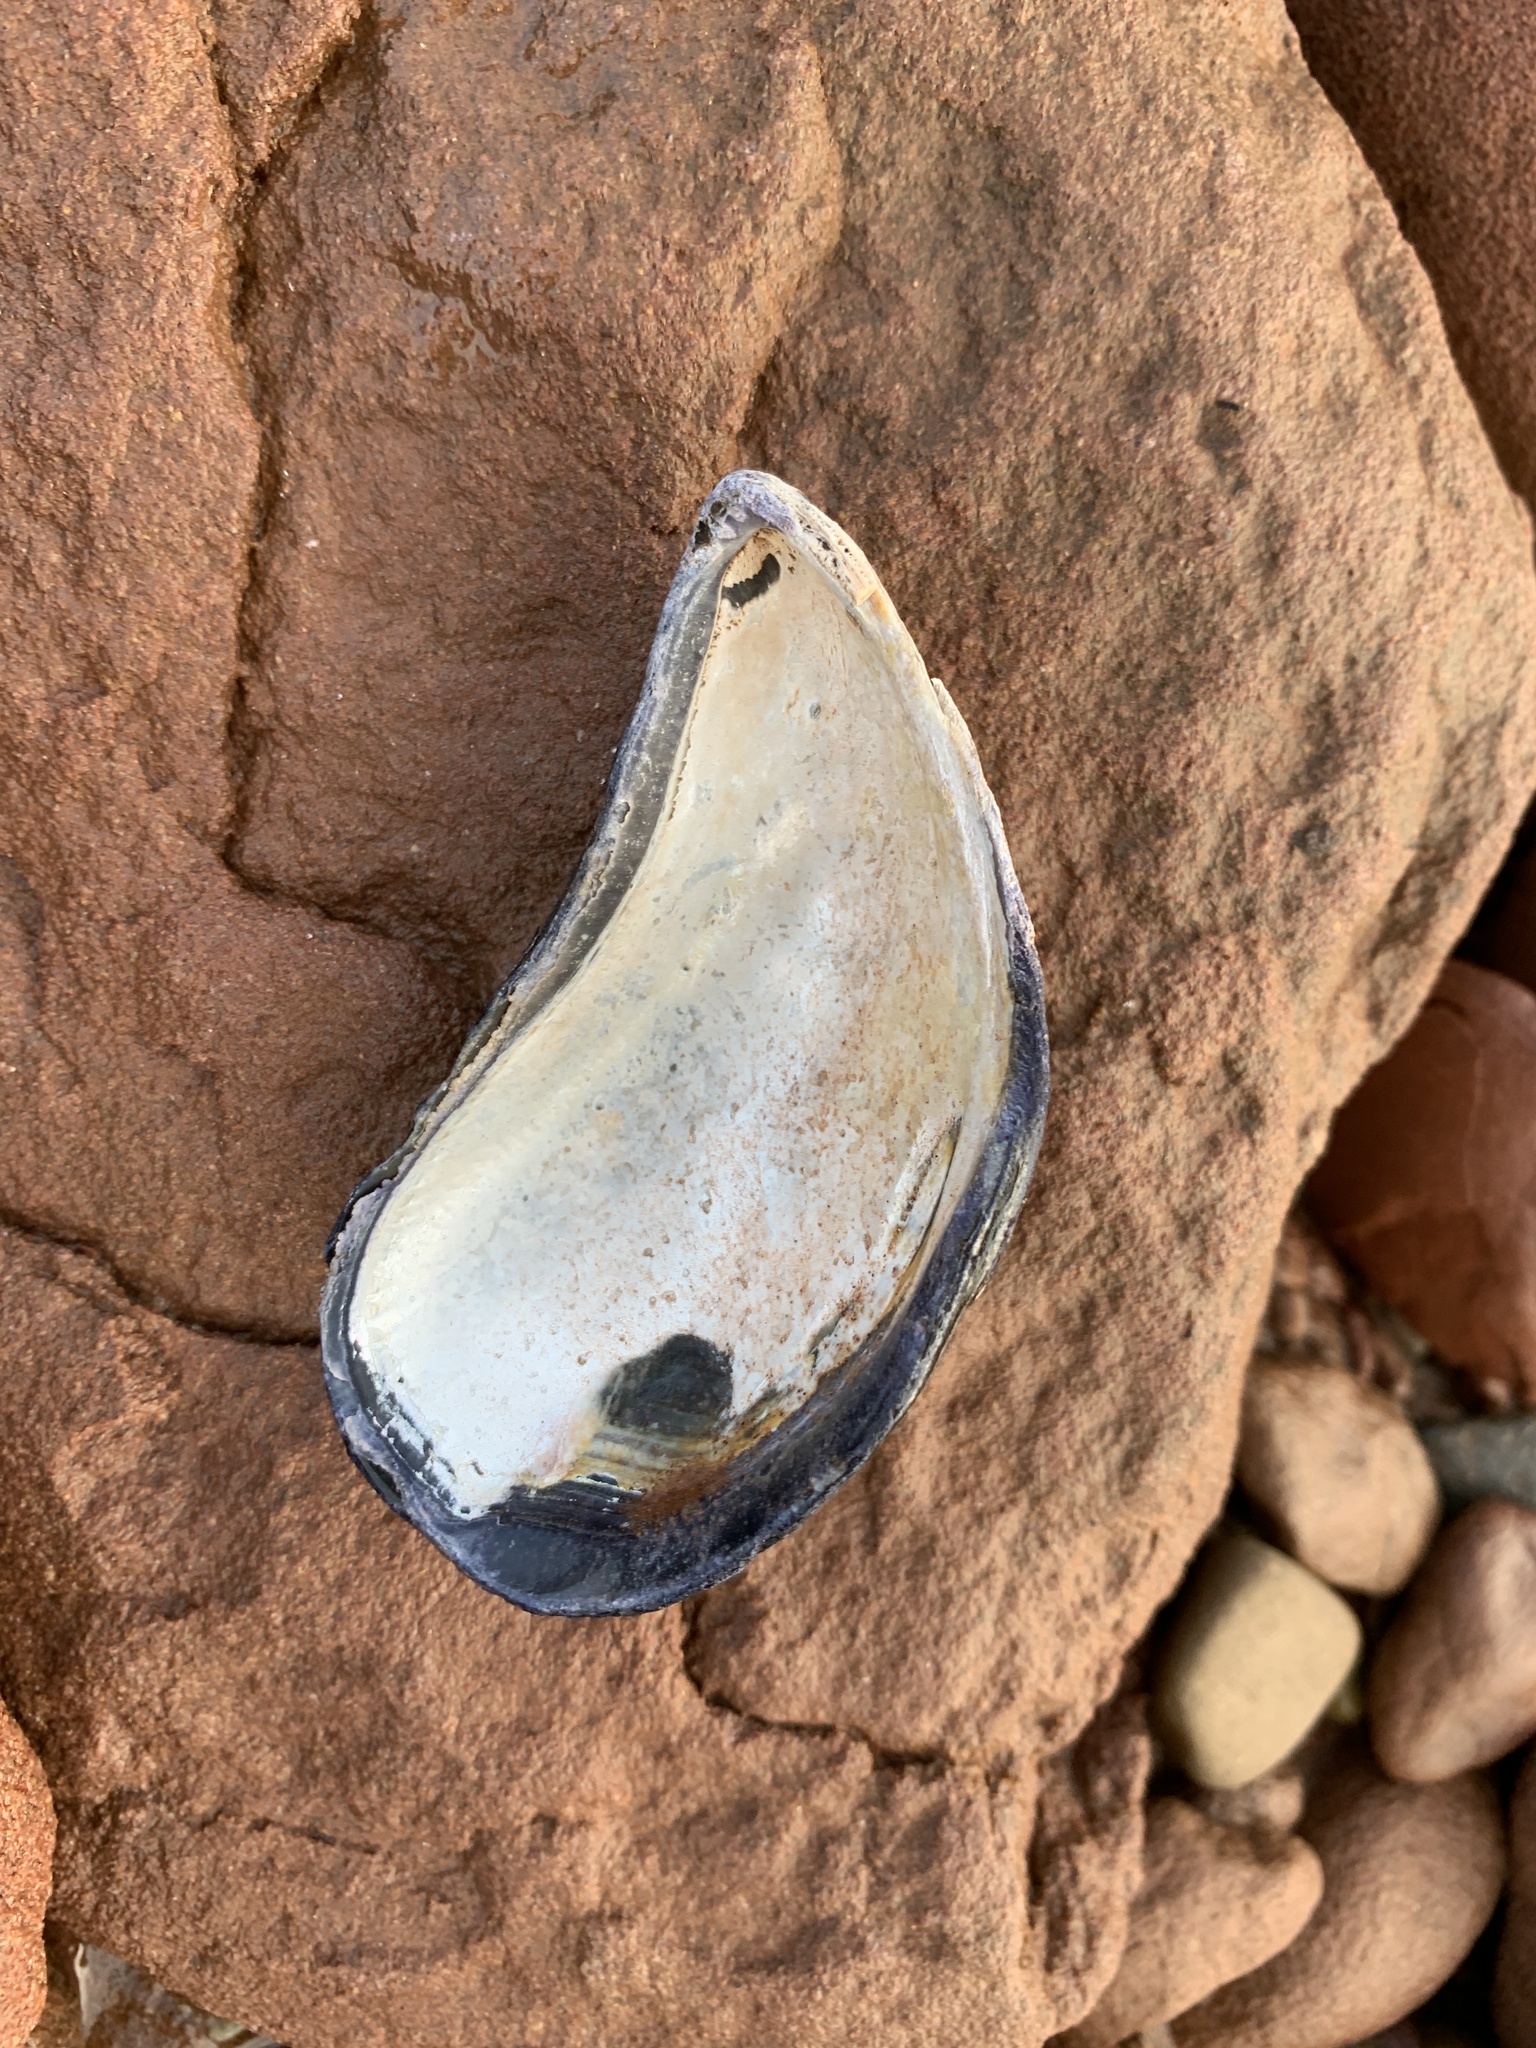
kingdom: Animalia
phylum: Mollusca
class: Bivalvia
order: Mytilida
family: Mytilidae
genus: Mytilus
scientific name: Mytilus
